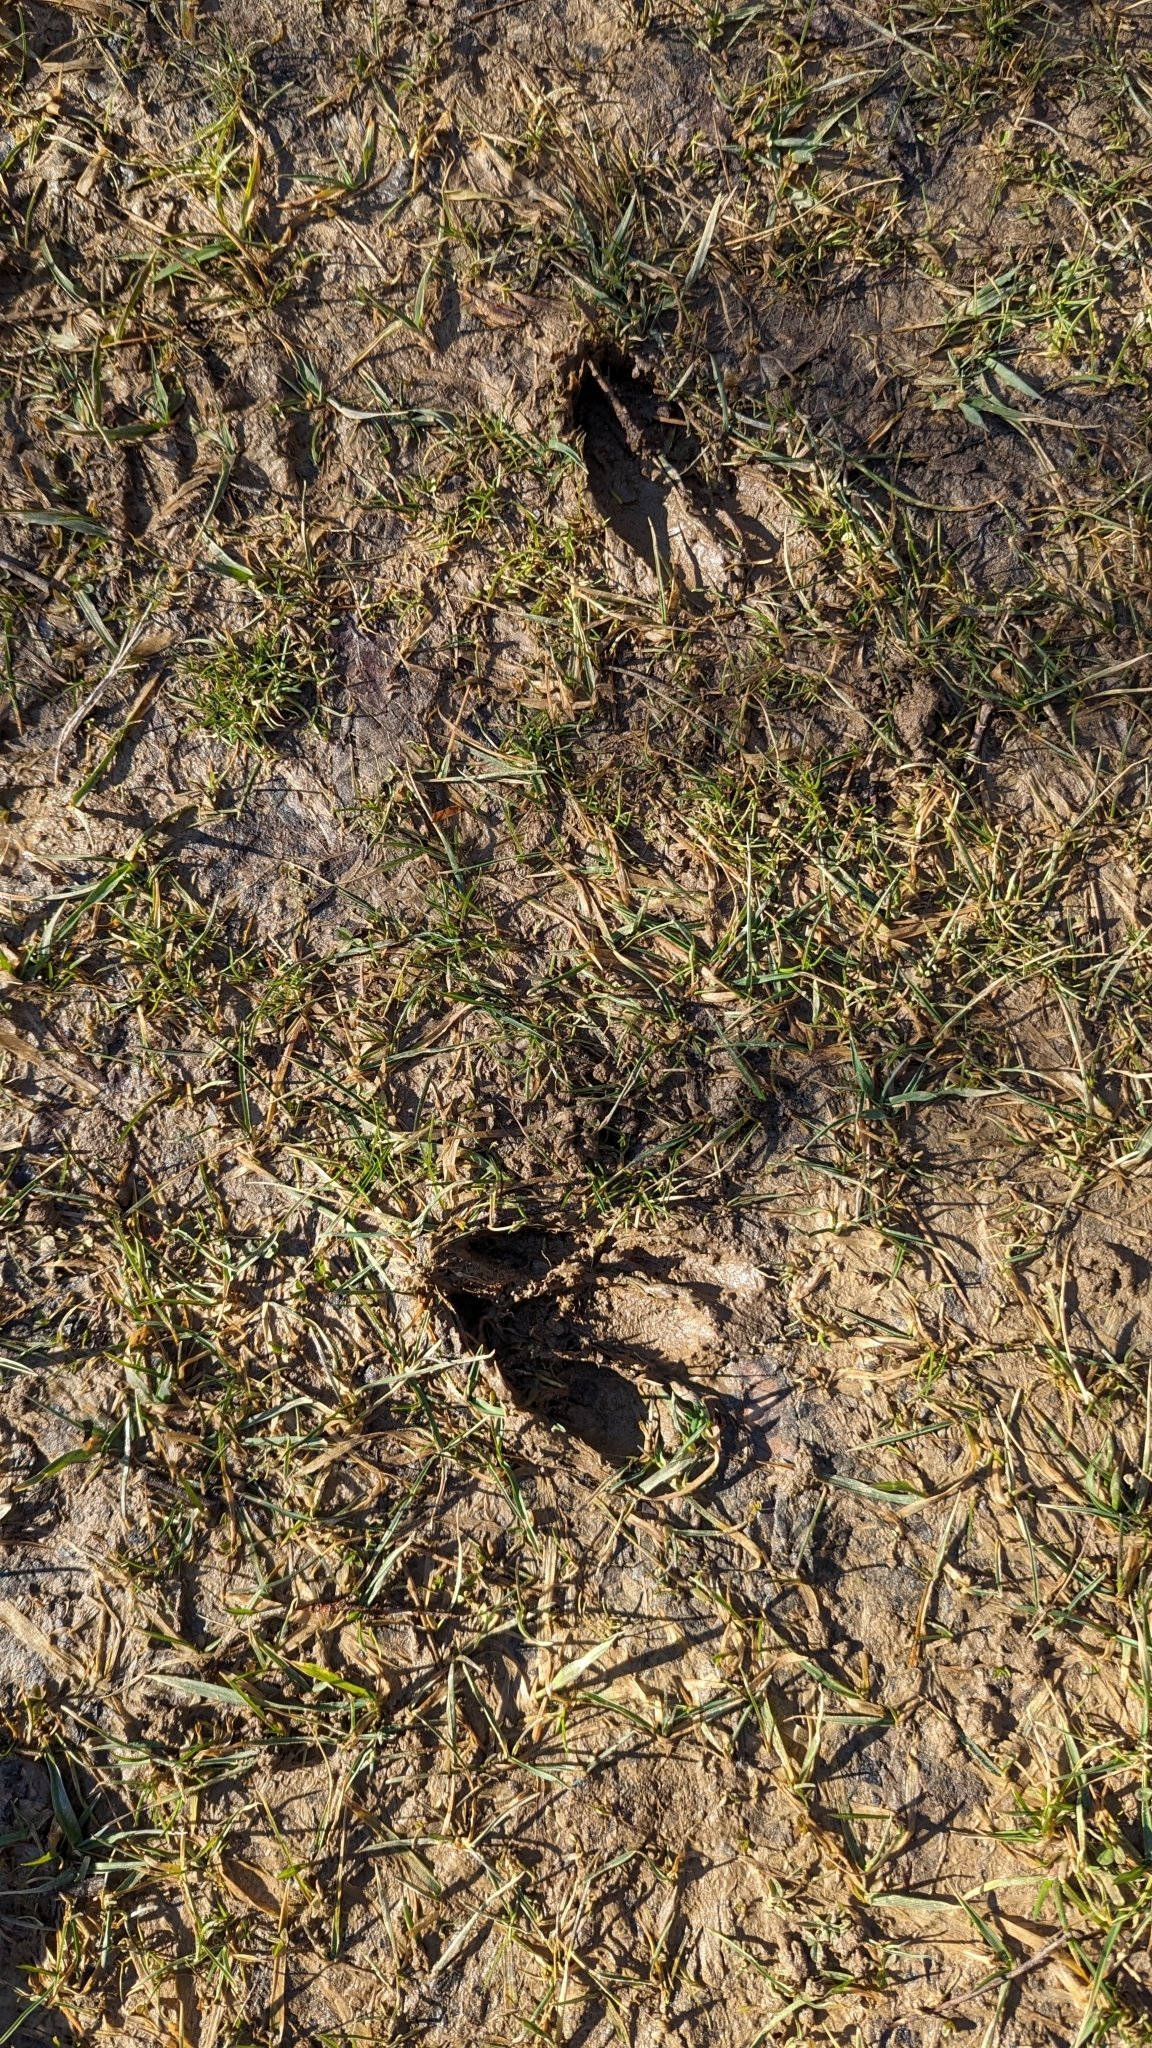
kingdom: Animalia
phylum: Chordata
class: Mammalia
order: Artiodactyla
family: Cervidae
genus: Odocoileus
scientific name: Odocoileus virginianus
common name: White-tailed deer
